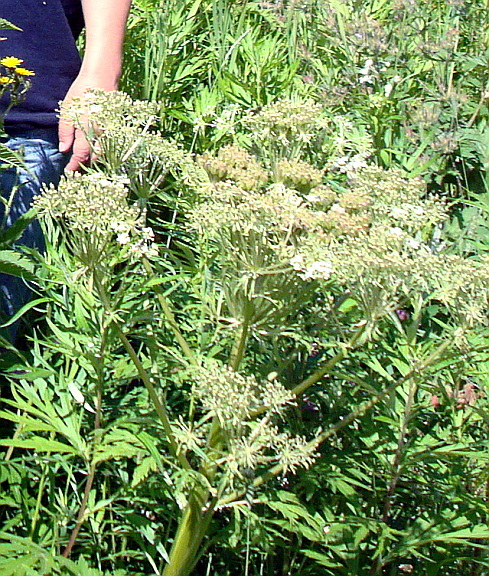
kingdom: Plantae
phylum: Tracheophyta
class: Magnoliopsida
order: Apiales
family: Apiaceae
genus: Pleurospermum
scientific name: Pleurospermum uralense
